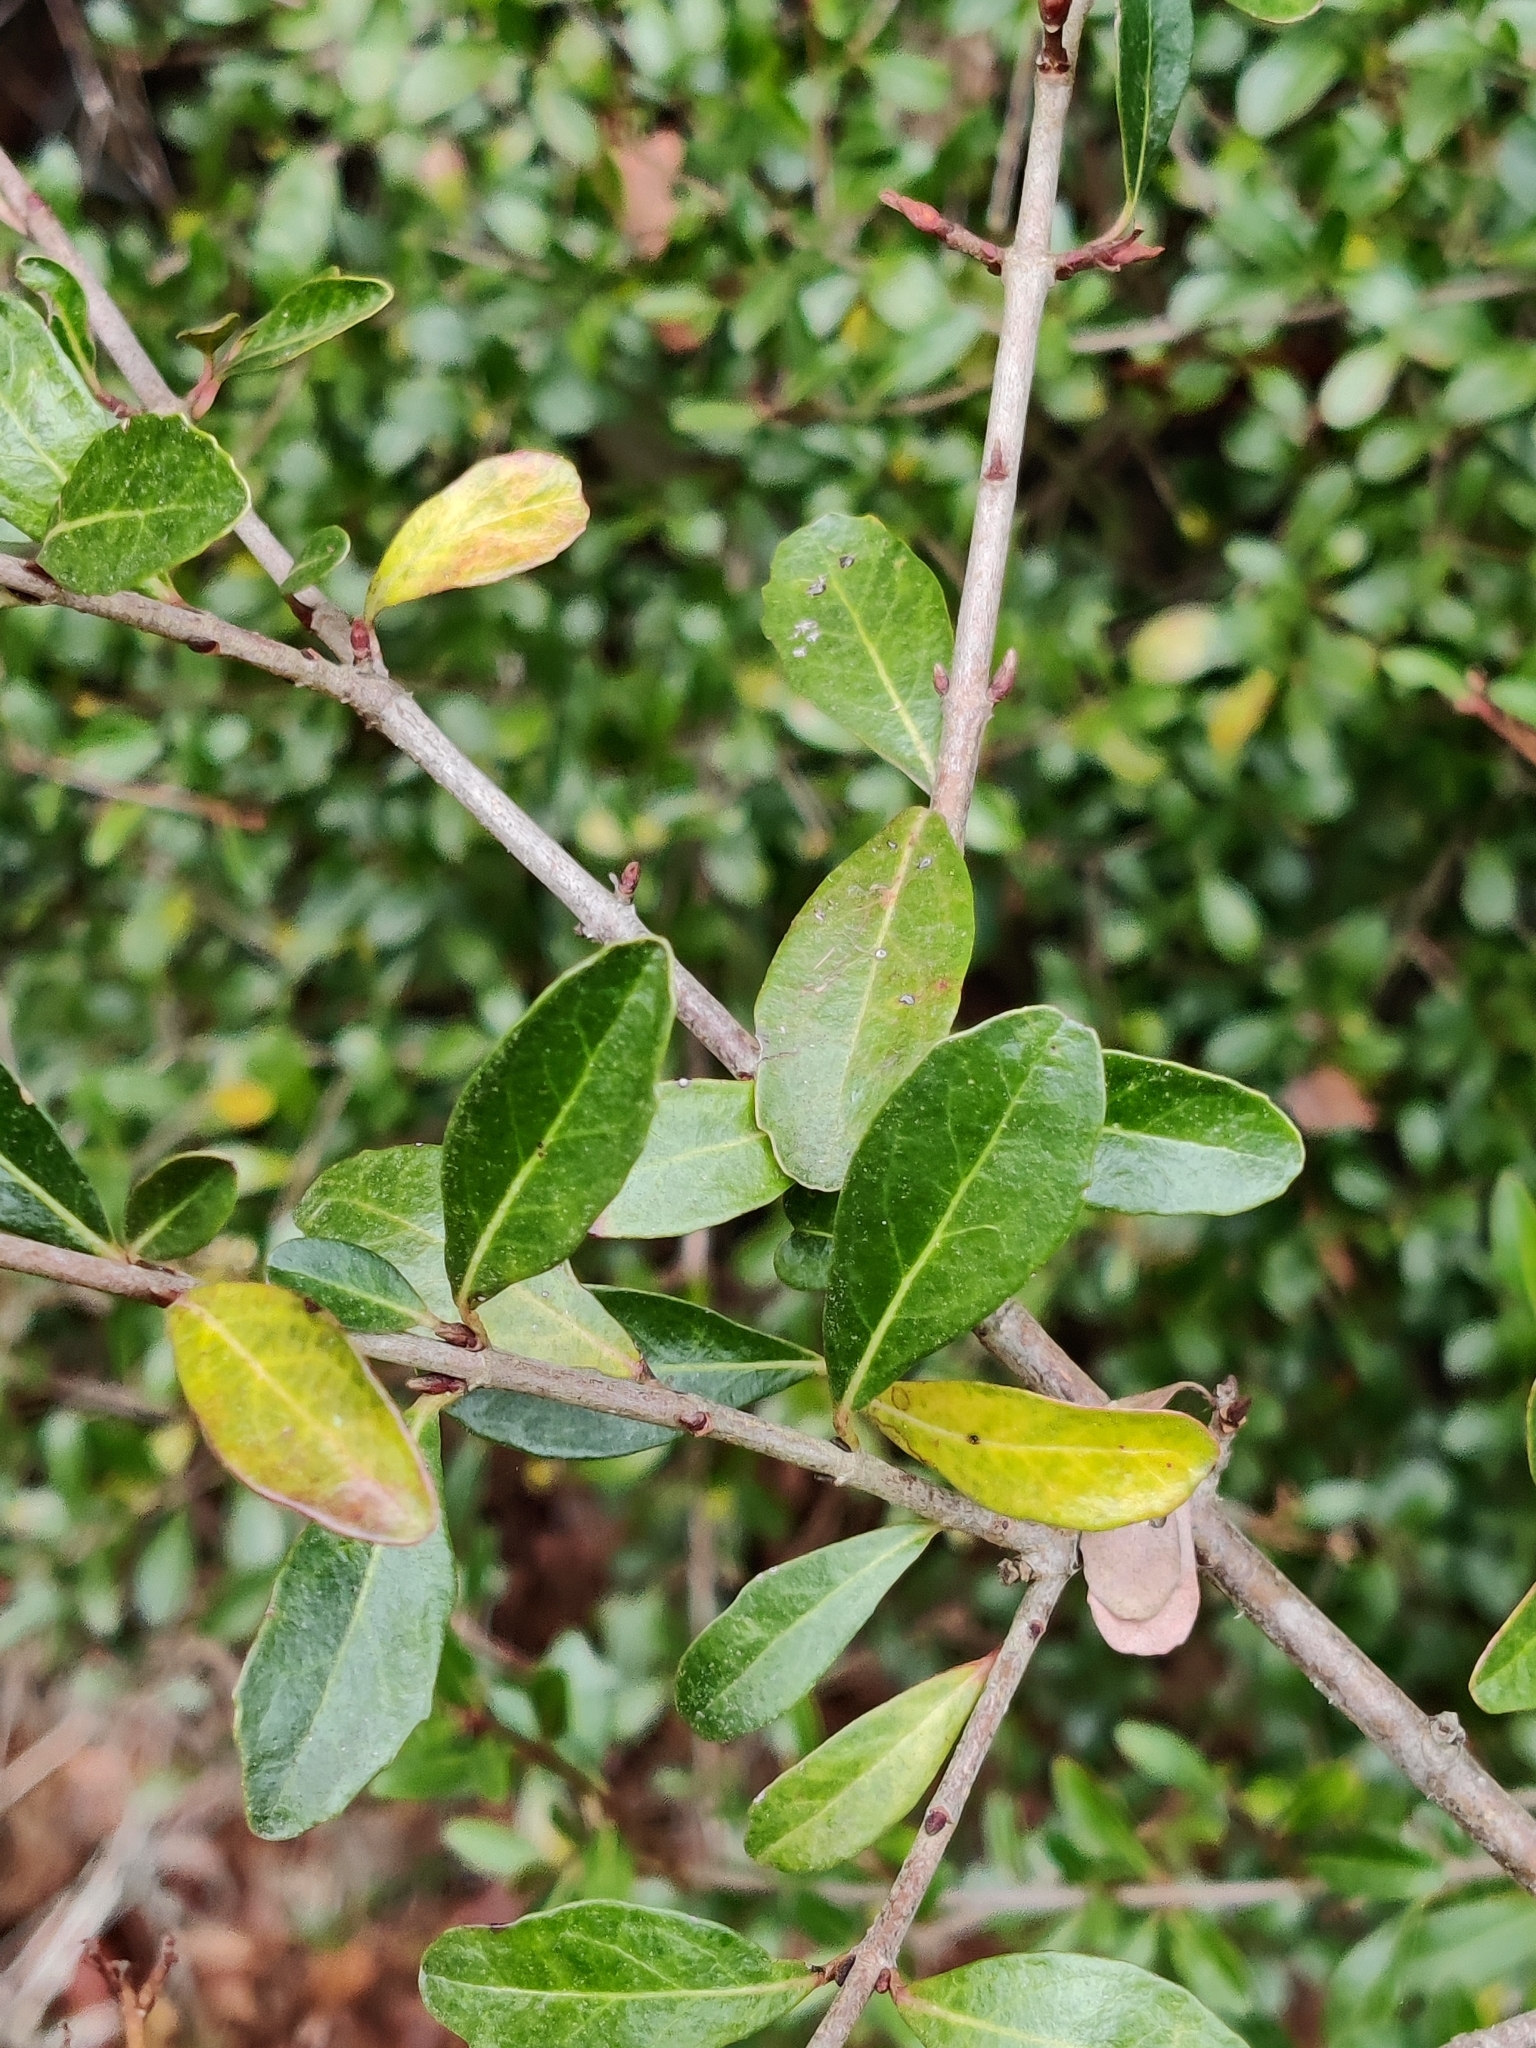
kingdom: Plantae
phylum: Tracheophyta
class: Magnoliopsida
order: Dipsacales
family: Viburnaceae
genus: Viburnum
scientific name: Viburnum obovatum
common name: Walter's viburnum
